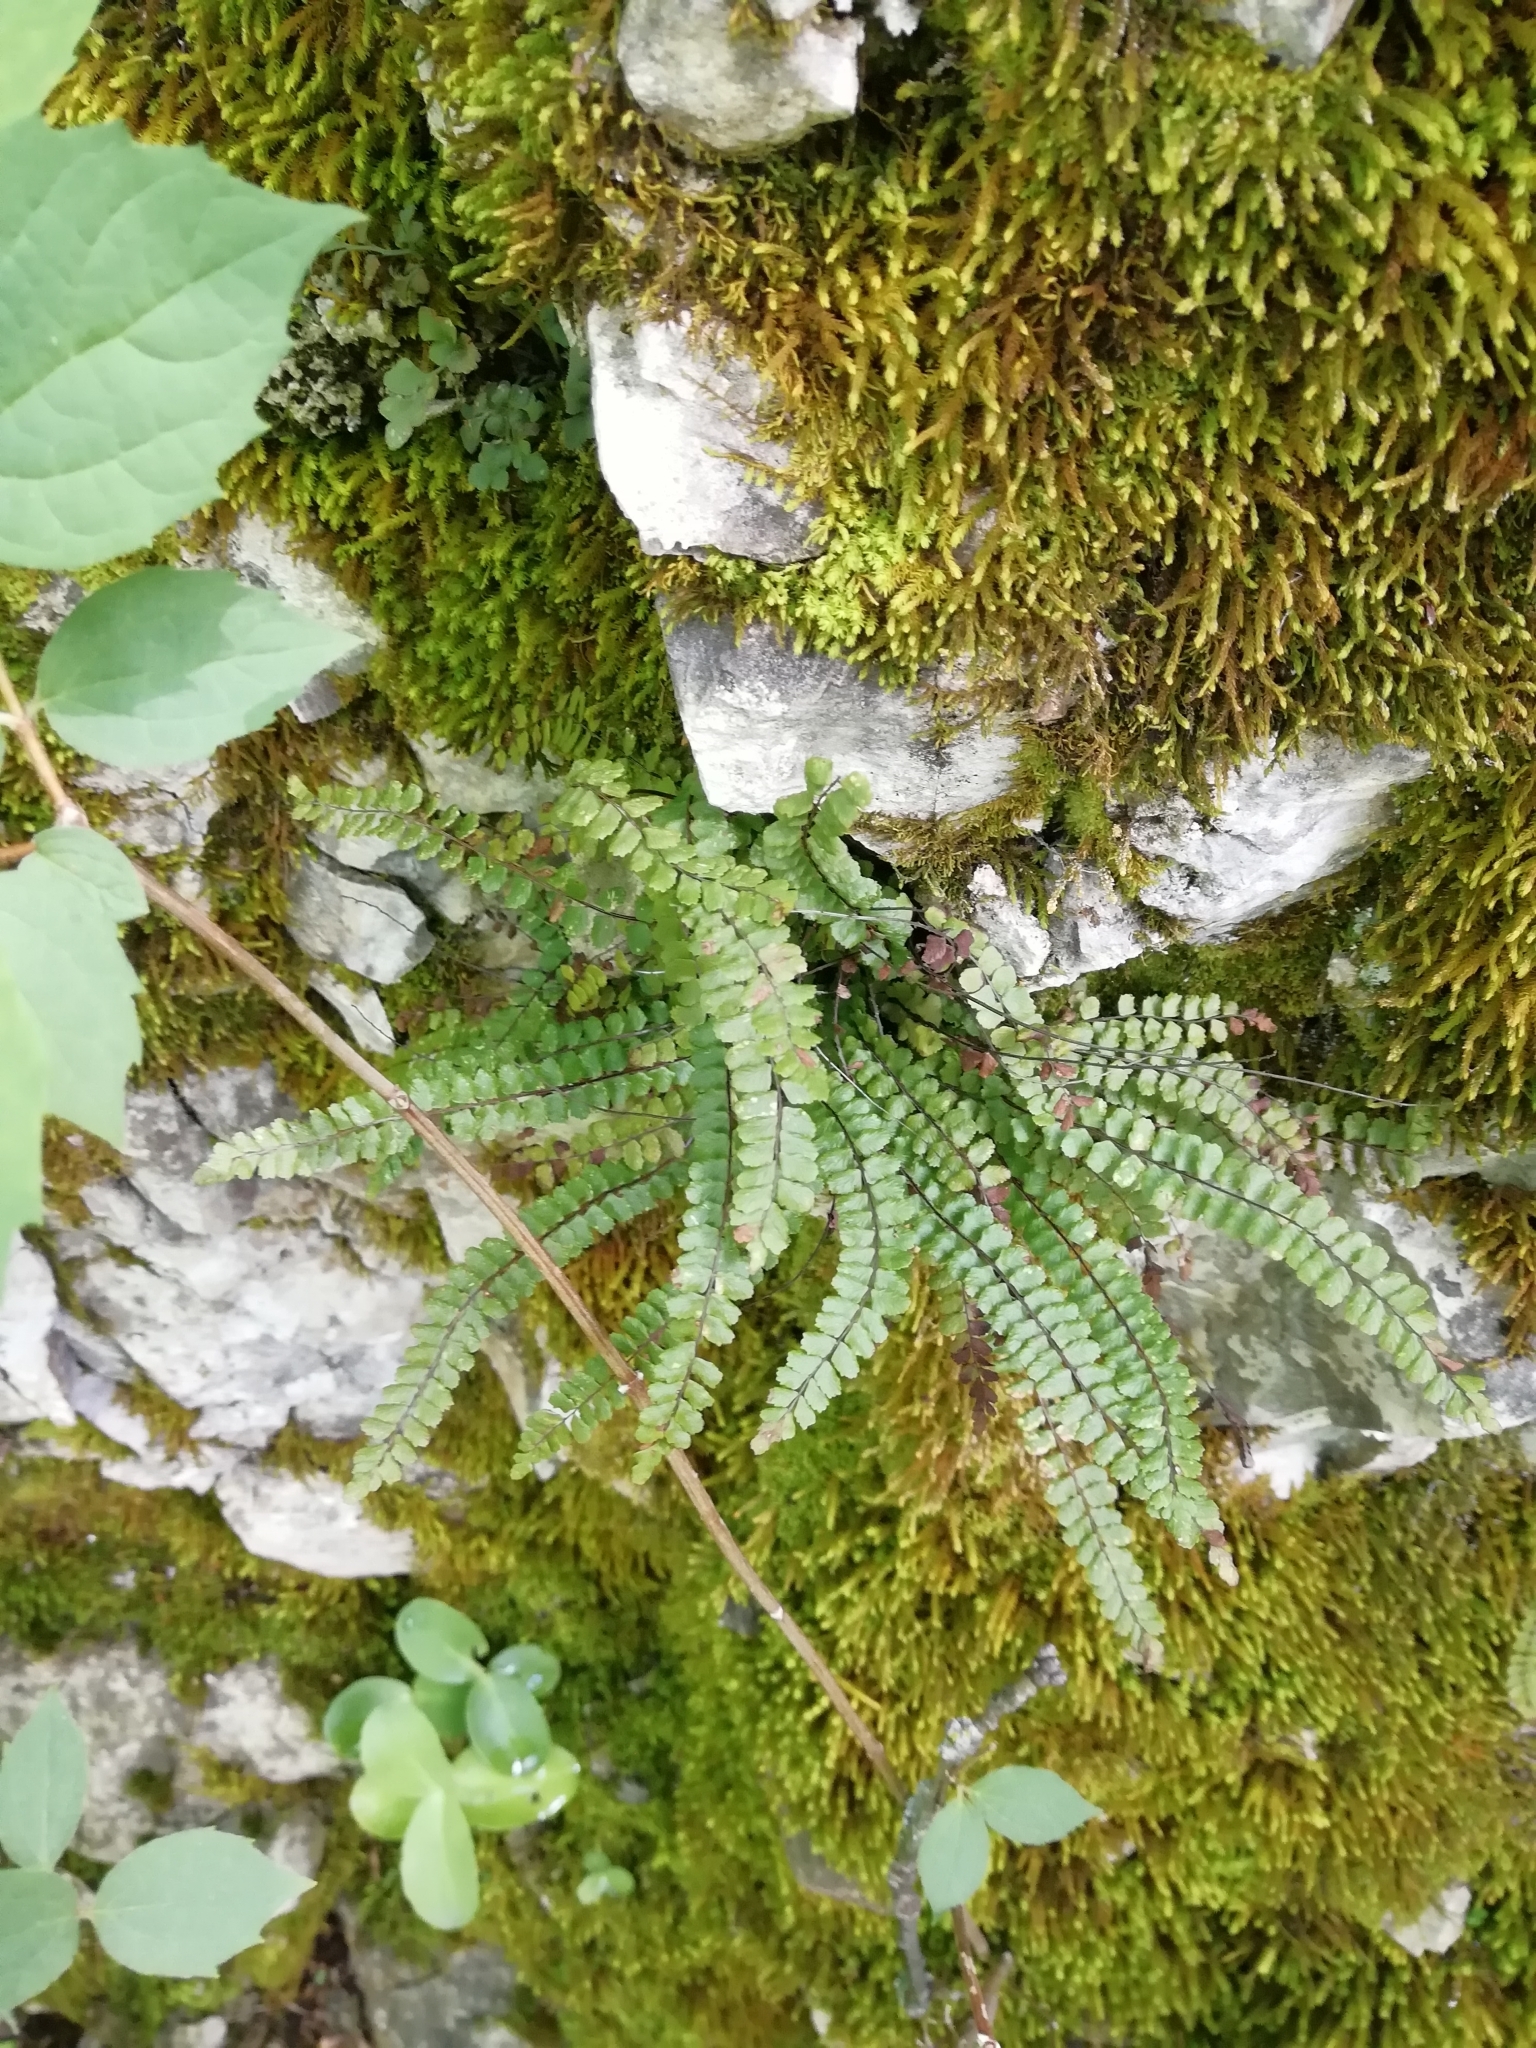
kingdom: Plantae
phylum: Tracheophyta
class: Polypodiopsida
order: Polypodiales
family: Aspleniaceae
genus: Asplenium
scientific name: Asplenium trichomanes
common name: Maidenhair spleenwort
